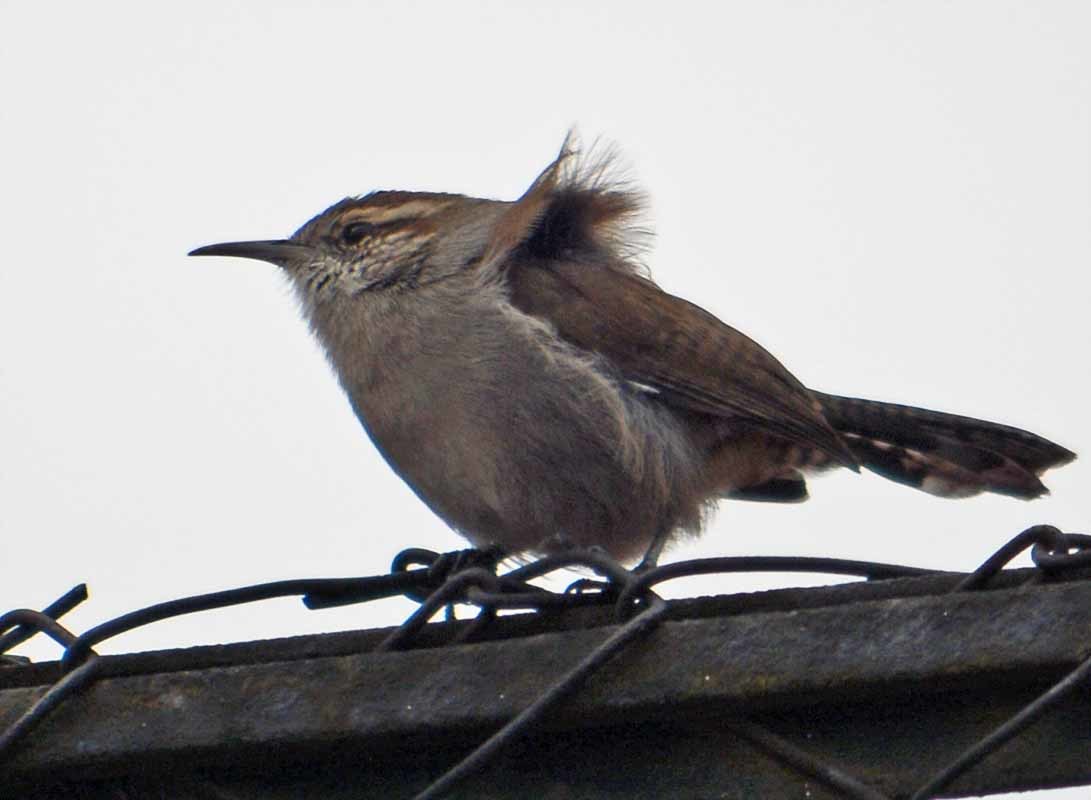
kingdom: Animalia
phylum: Chordata
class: Aves
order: Passeriformes
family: Troglodytidae
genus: Thryomanes
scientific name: Thryomanes bewickii
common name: Bewick's wren
